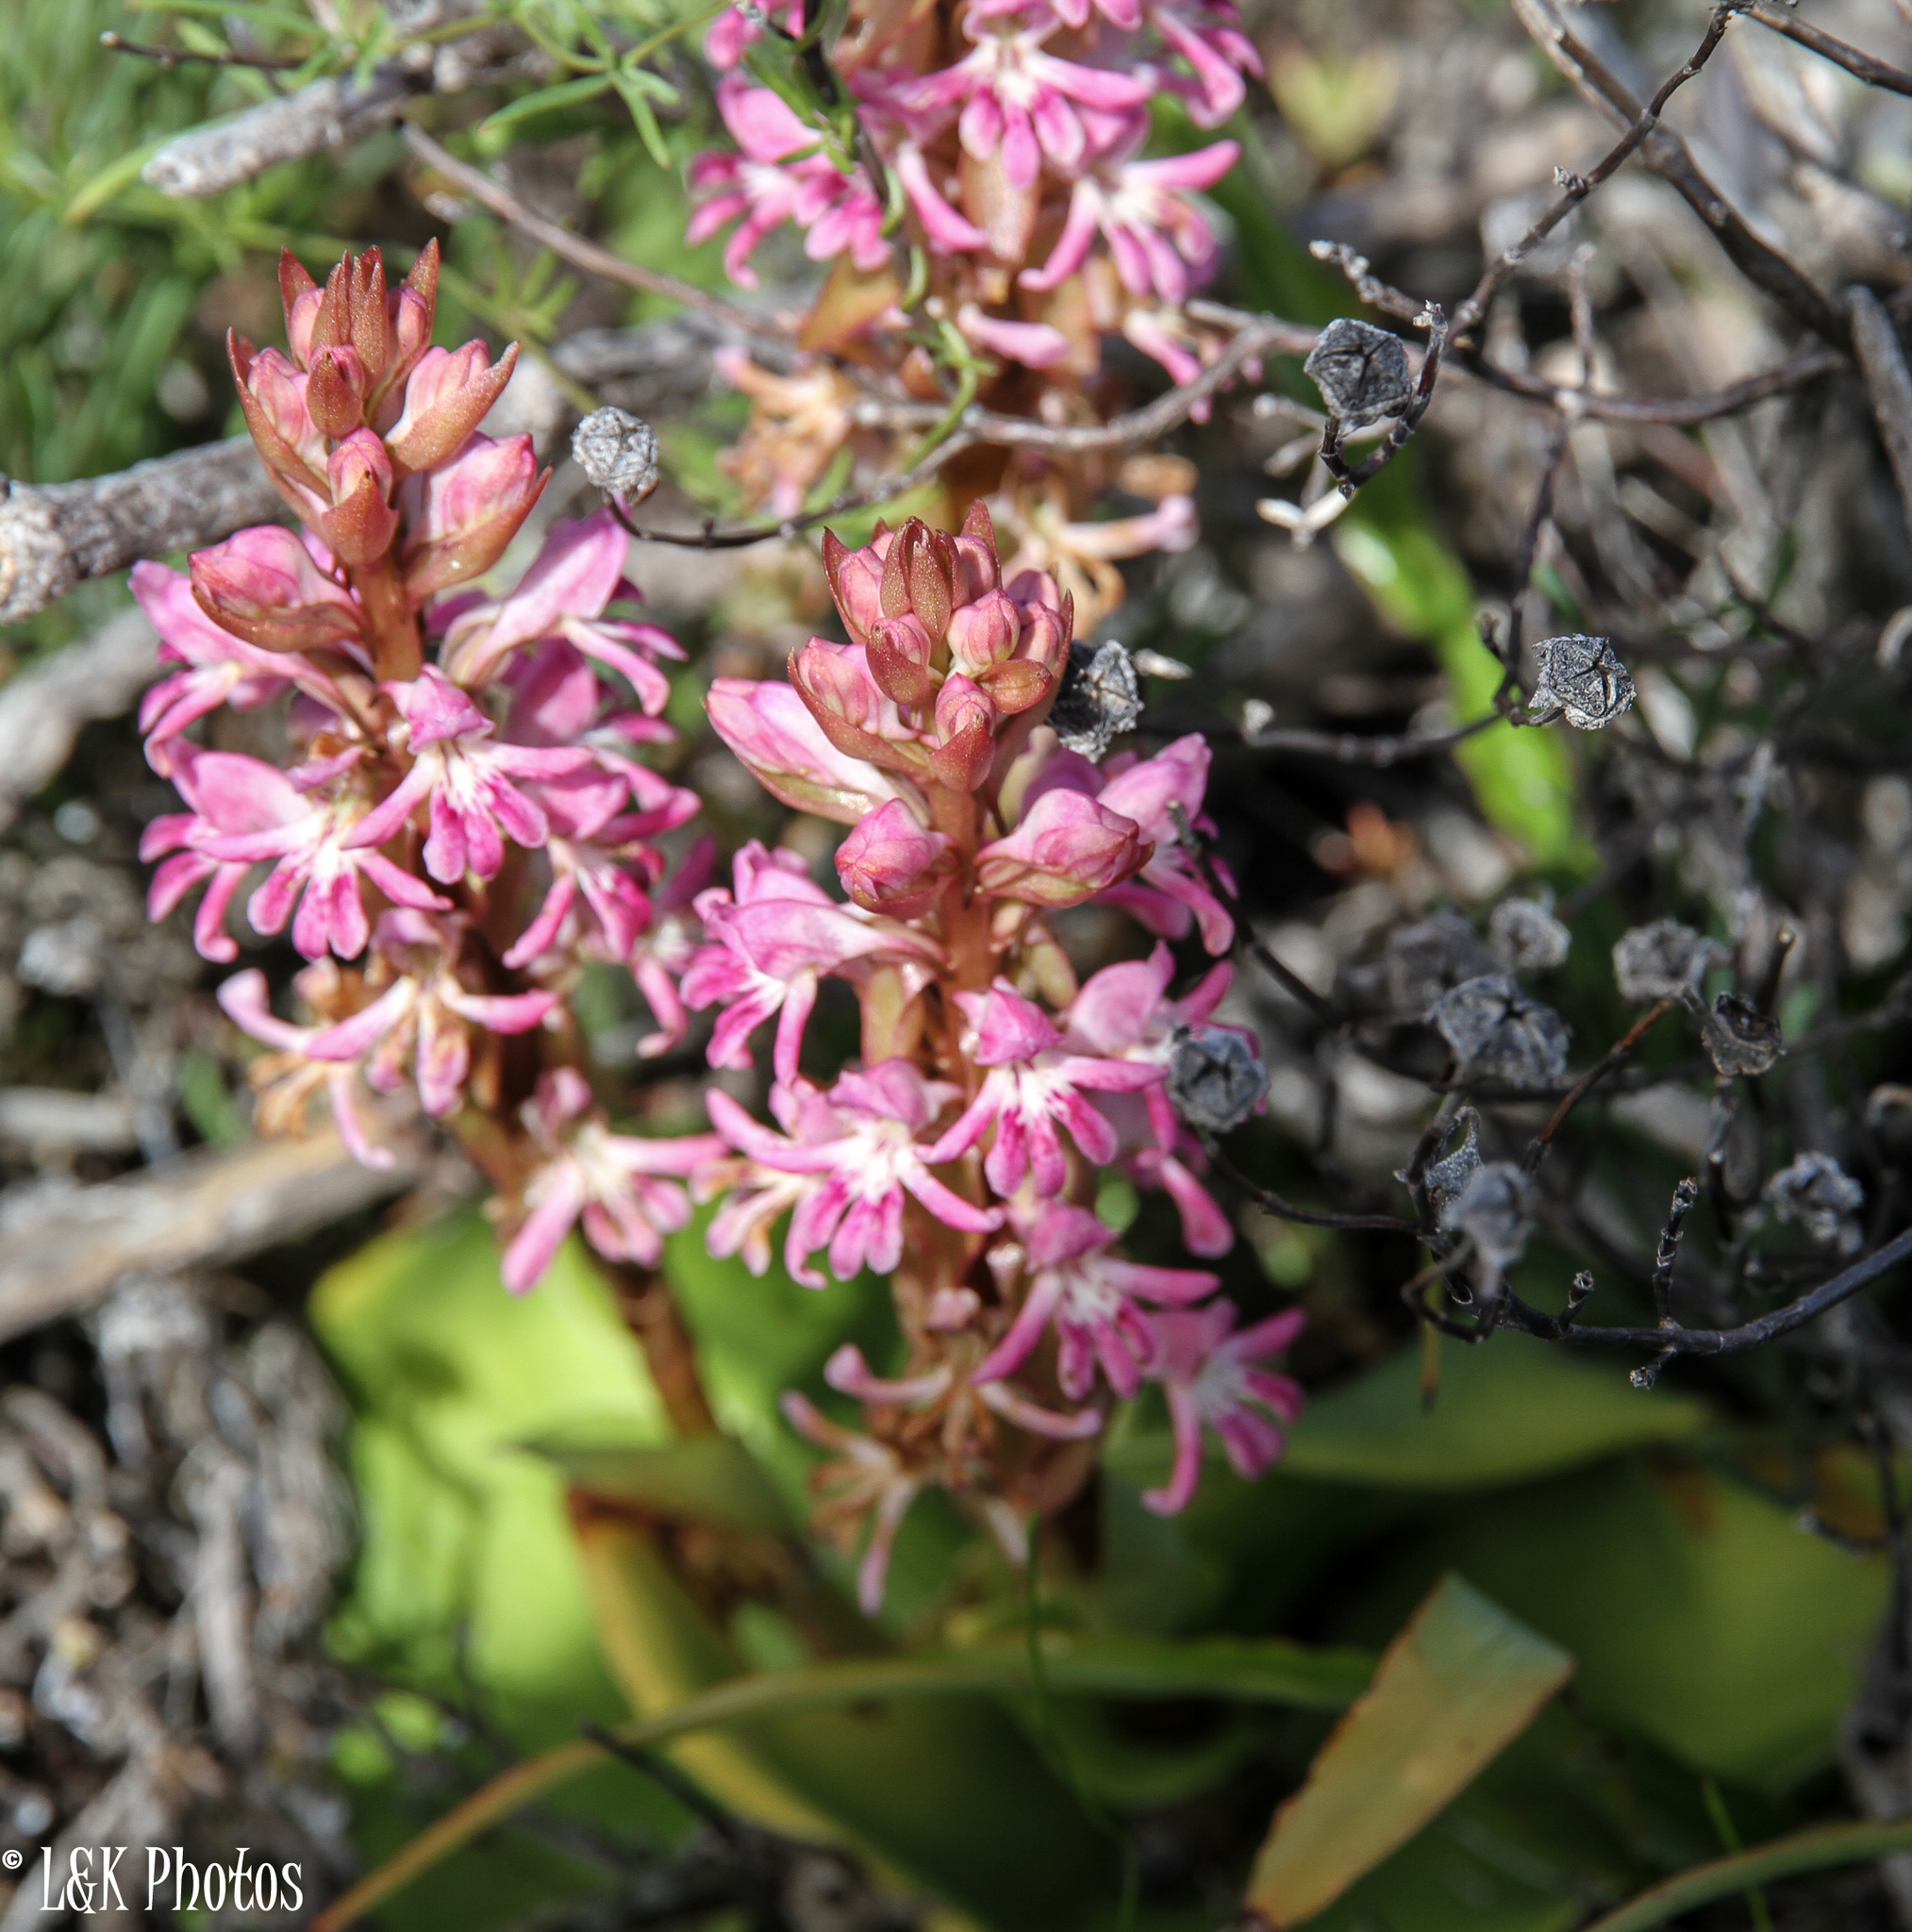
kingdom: Plantae
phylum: Tracheophyta
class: Liliopsida
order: Asparagales
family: Orchidaceae
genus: Satyrium
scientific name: Satyrium erectum
